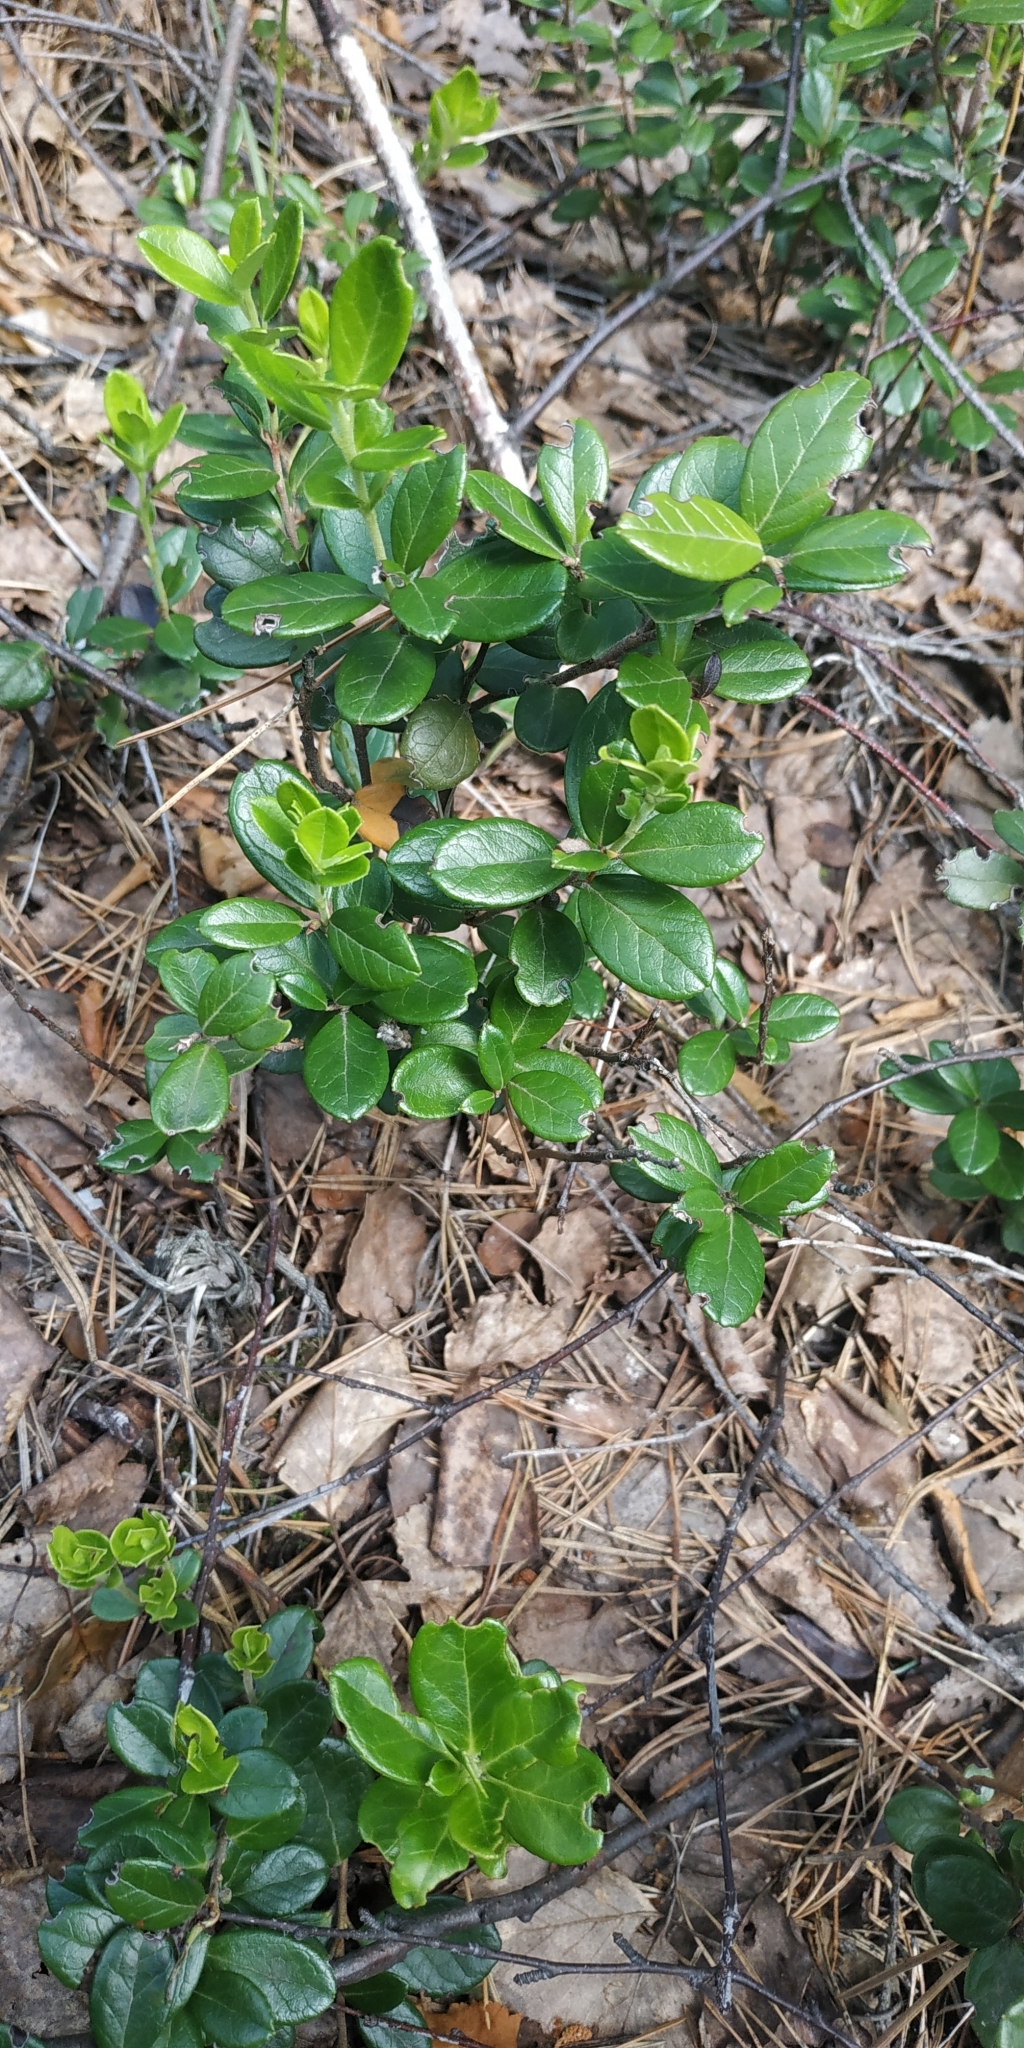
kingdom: Plantae
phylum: Tracheophyta
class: Magnoliopsida
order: Ericales
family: Ericaceae
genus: Vaccinium
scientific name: Vaccinium vitis-idaea
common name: Cowberry
